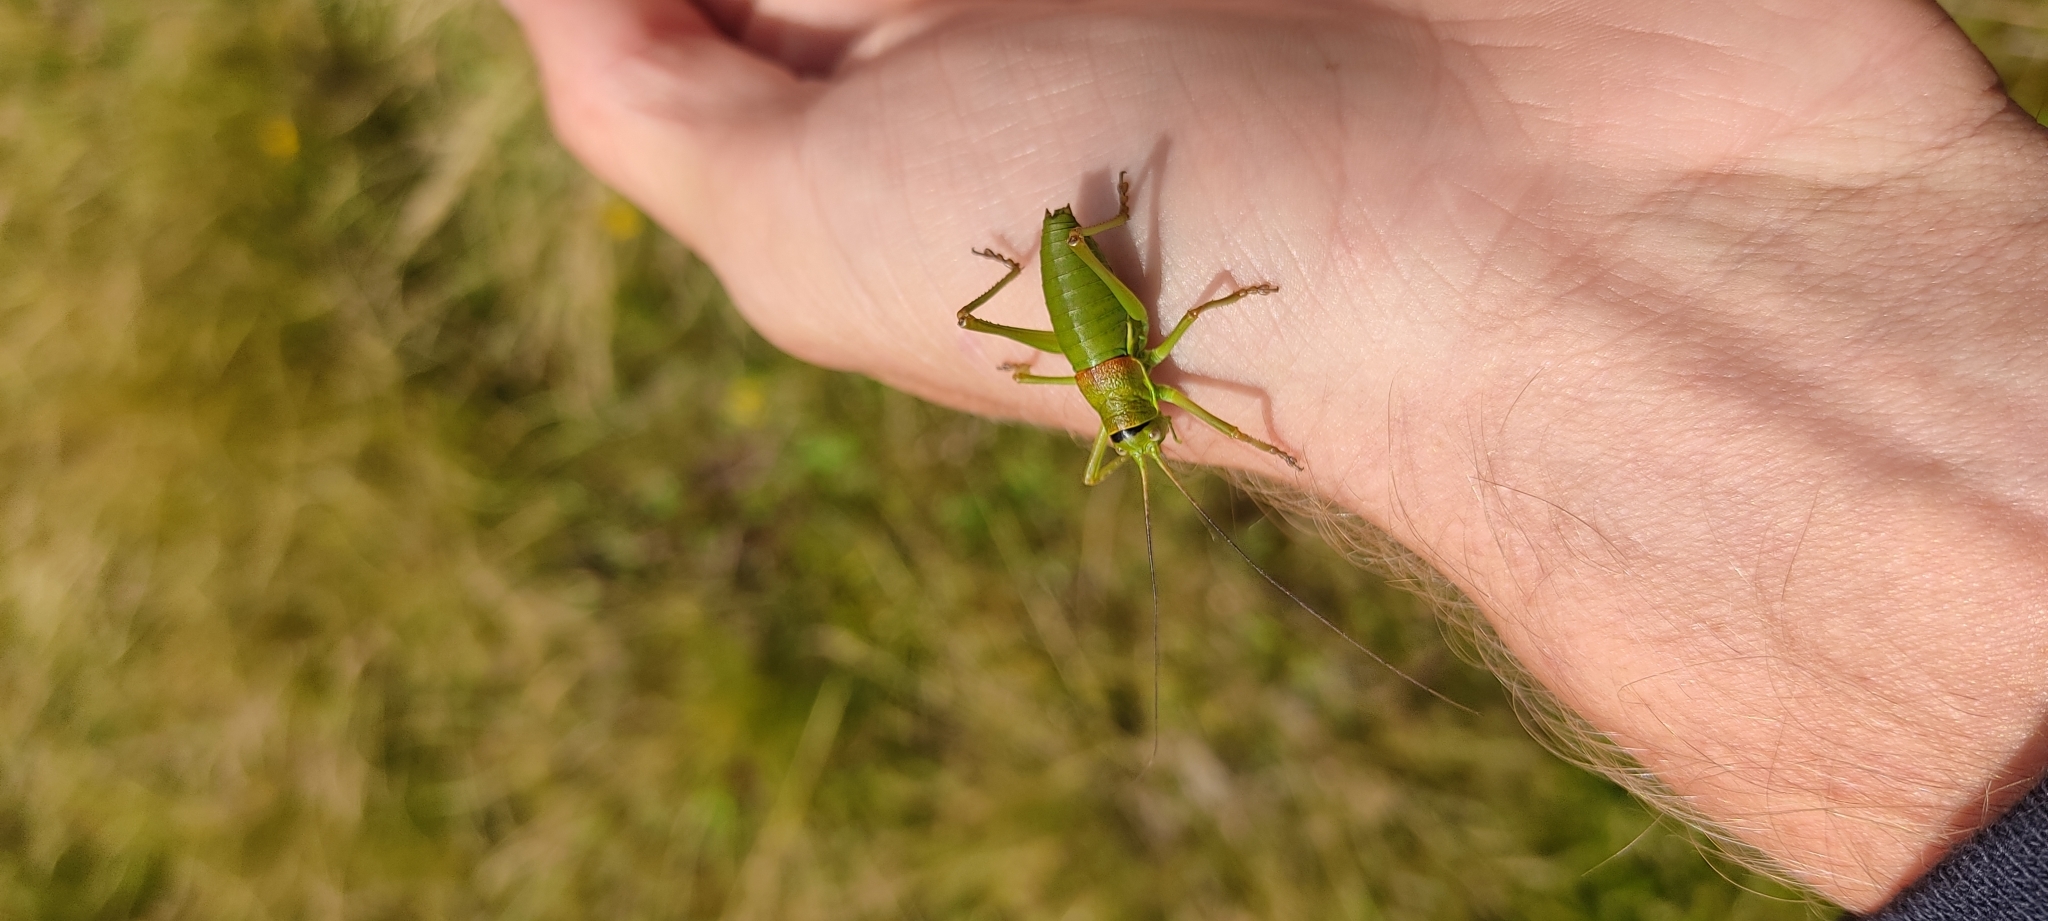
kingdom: Animalia
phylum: Arthropoda
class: Insecta
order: Orthoptera
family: Tettigoniidae
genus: Ephippiger
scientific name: Ephippiger diurnus
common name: Western saddle bush-cricket
